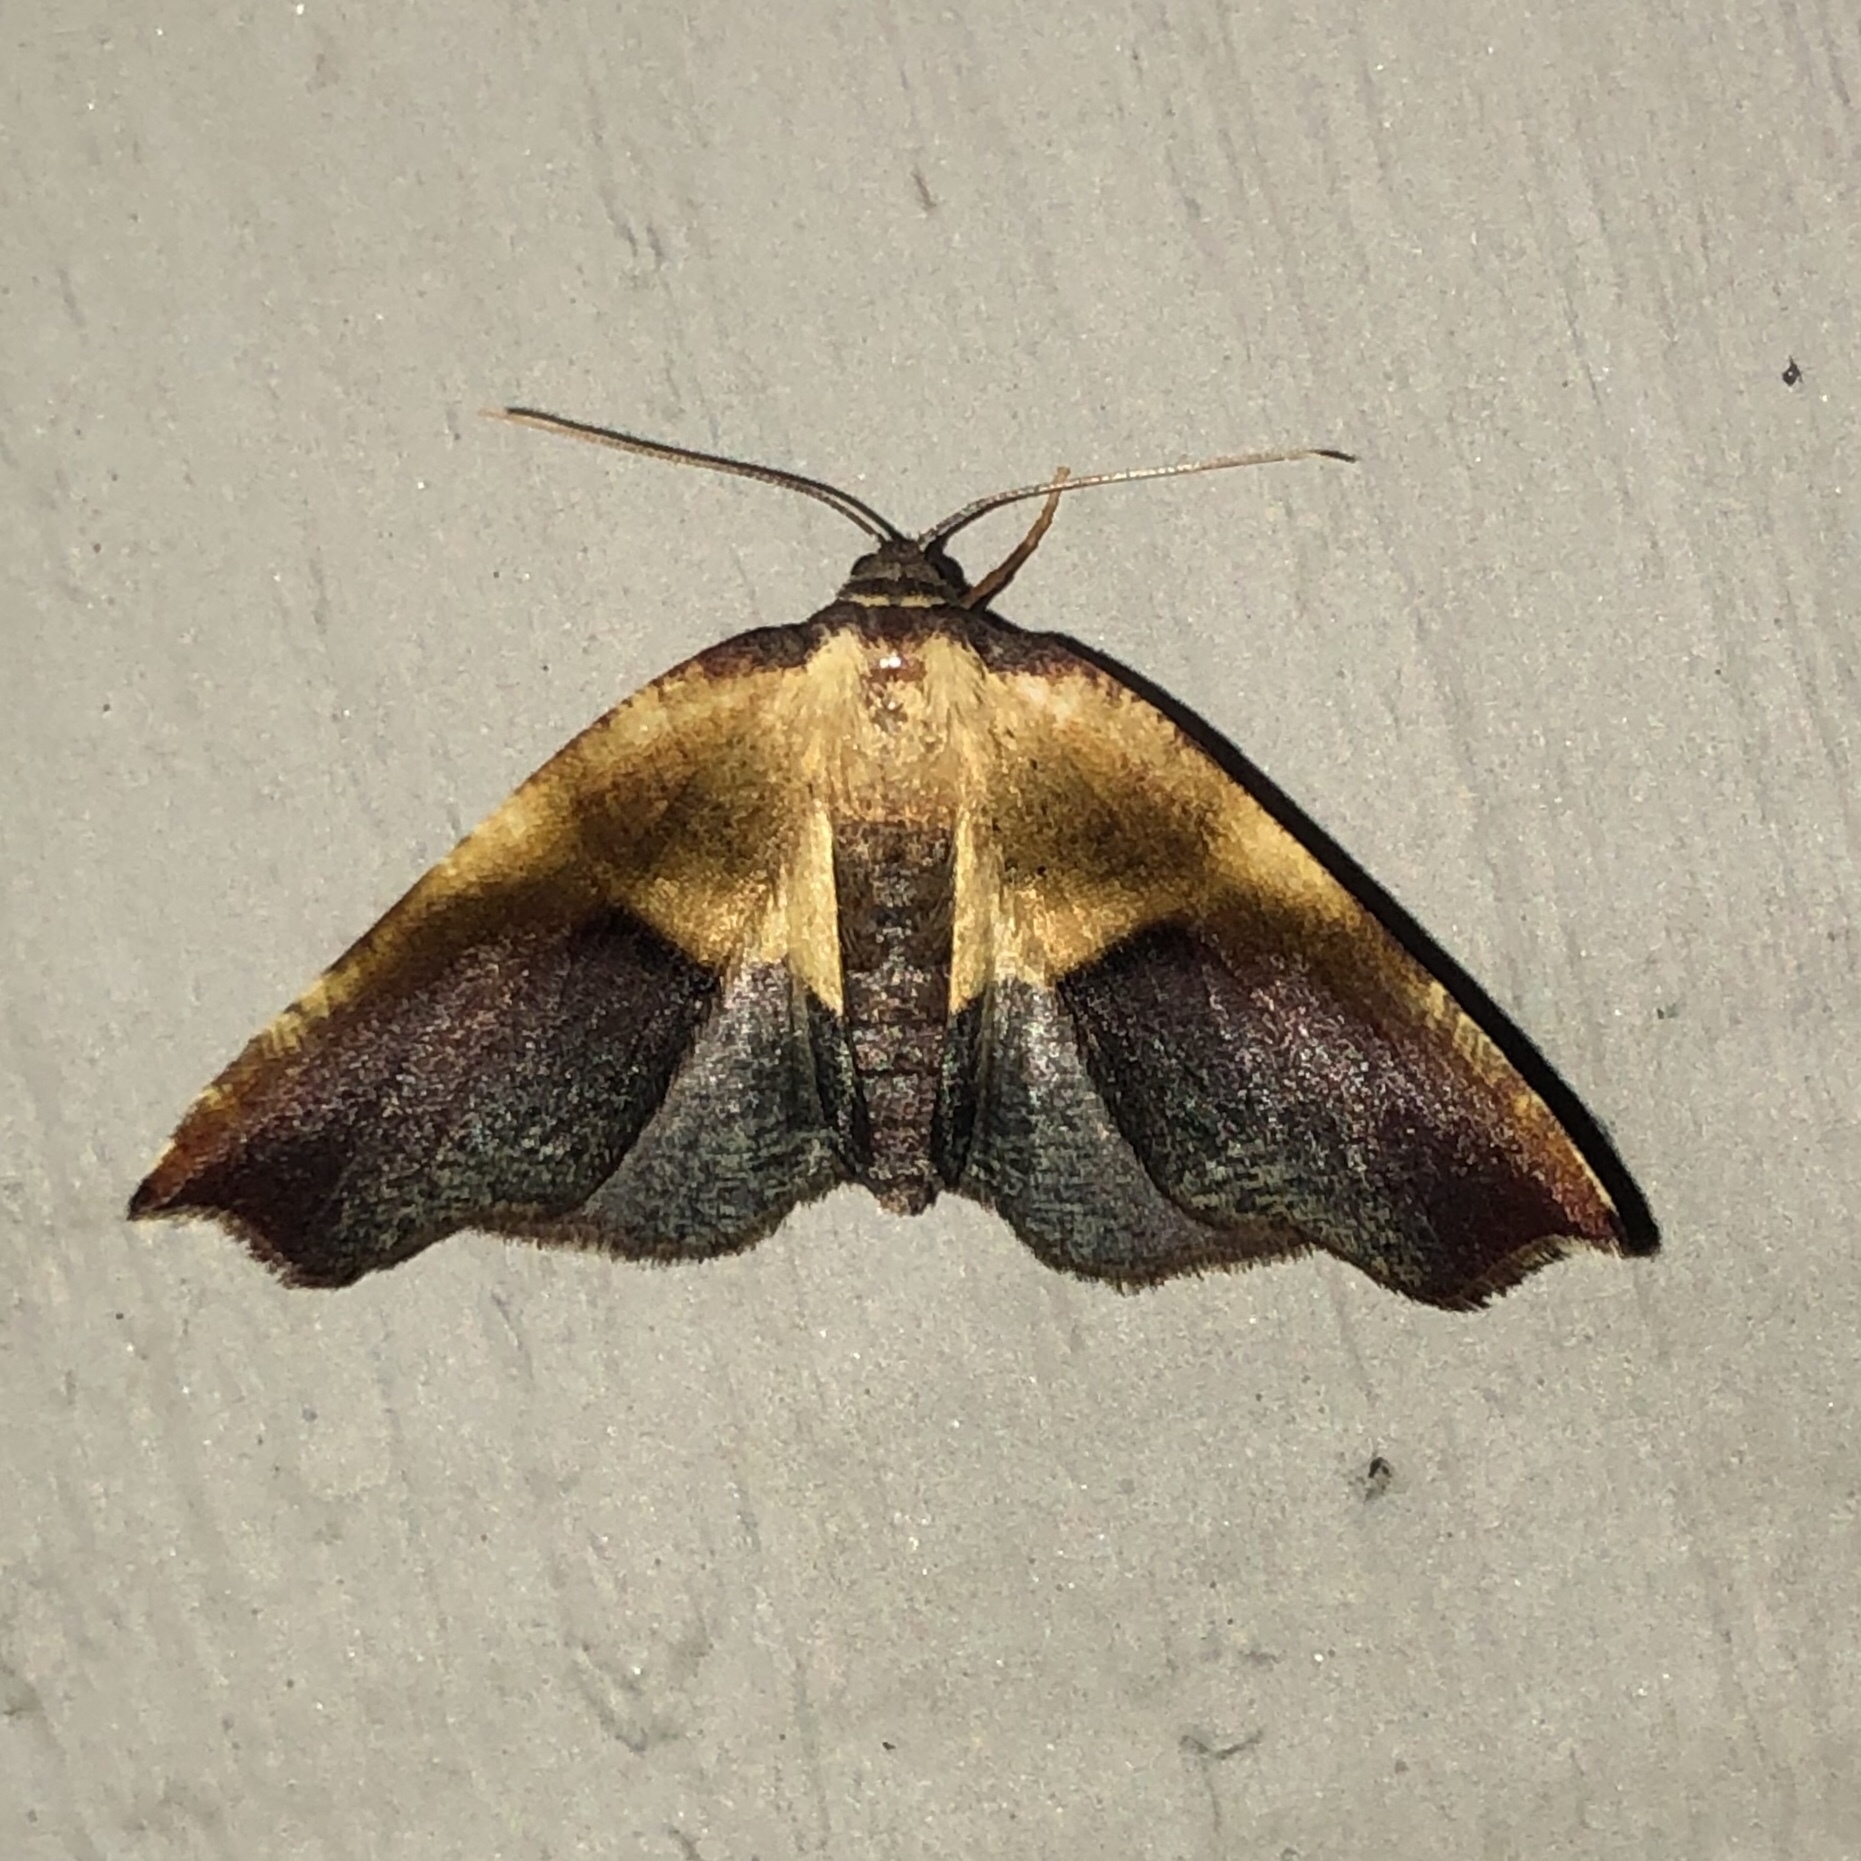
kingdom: Animalia
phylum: Arthropoda
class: Insecta
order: Lepidoptera
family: Geometridae
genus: Plagodis
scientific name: Plagodis kuetzingi
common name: Purple plagodis
